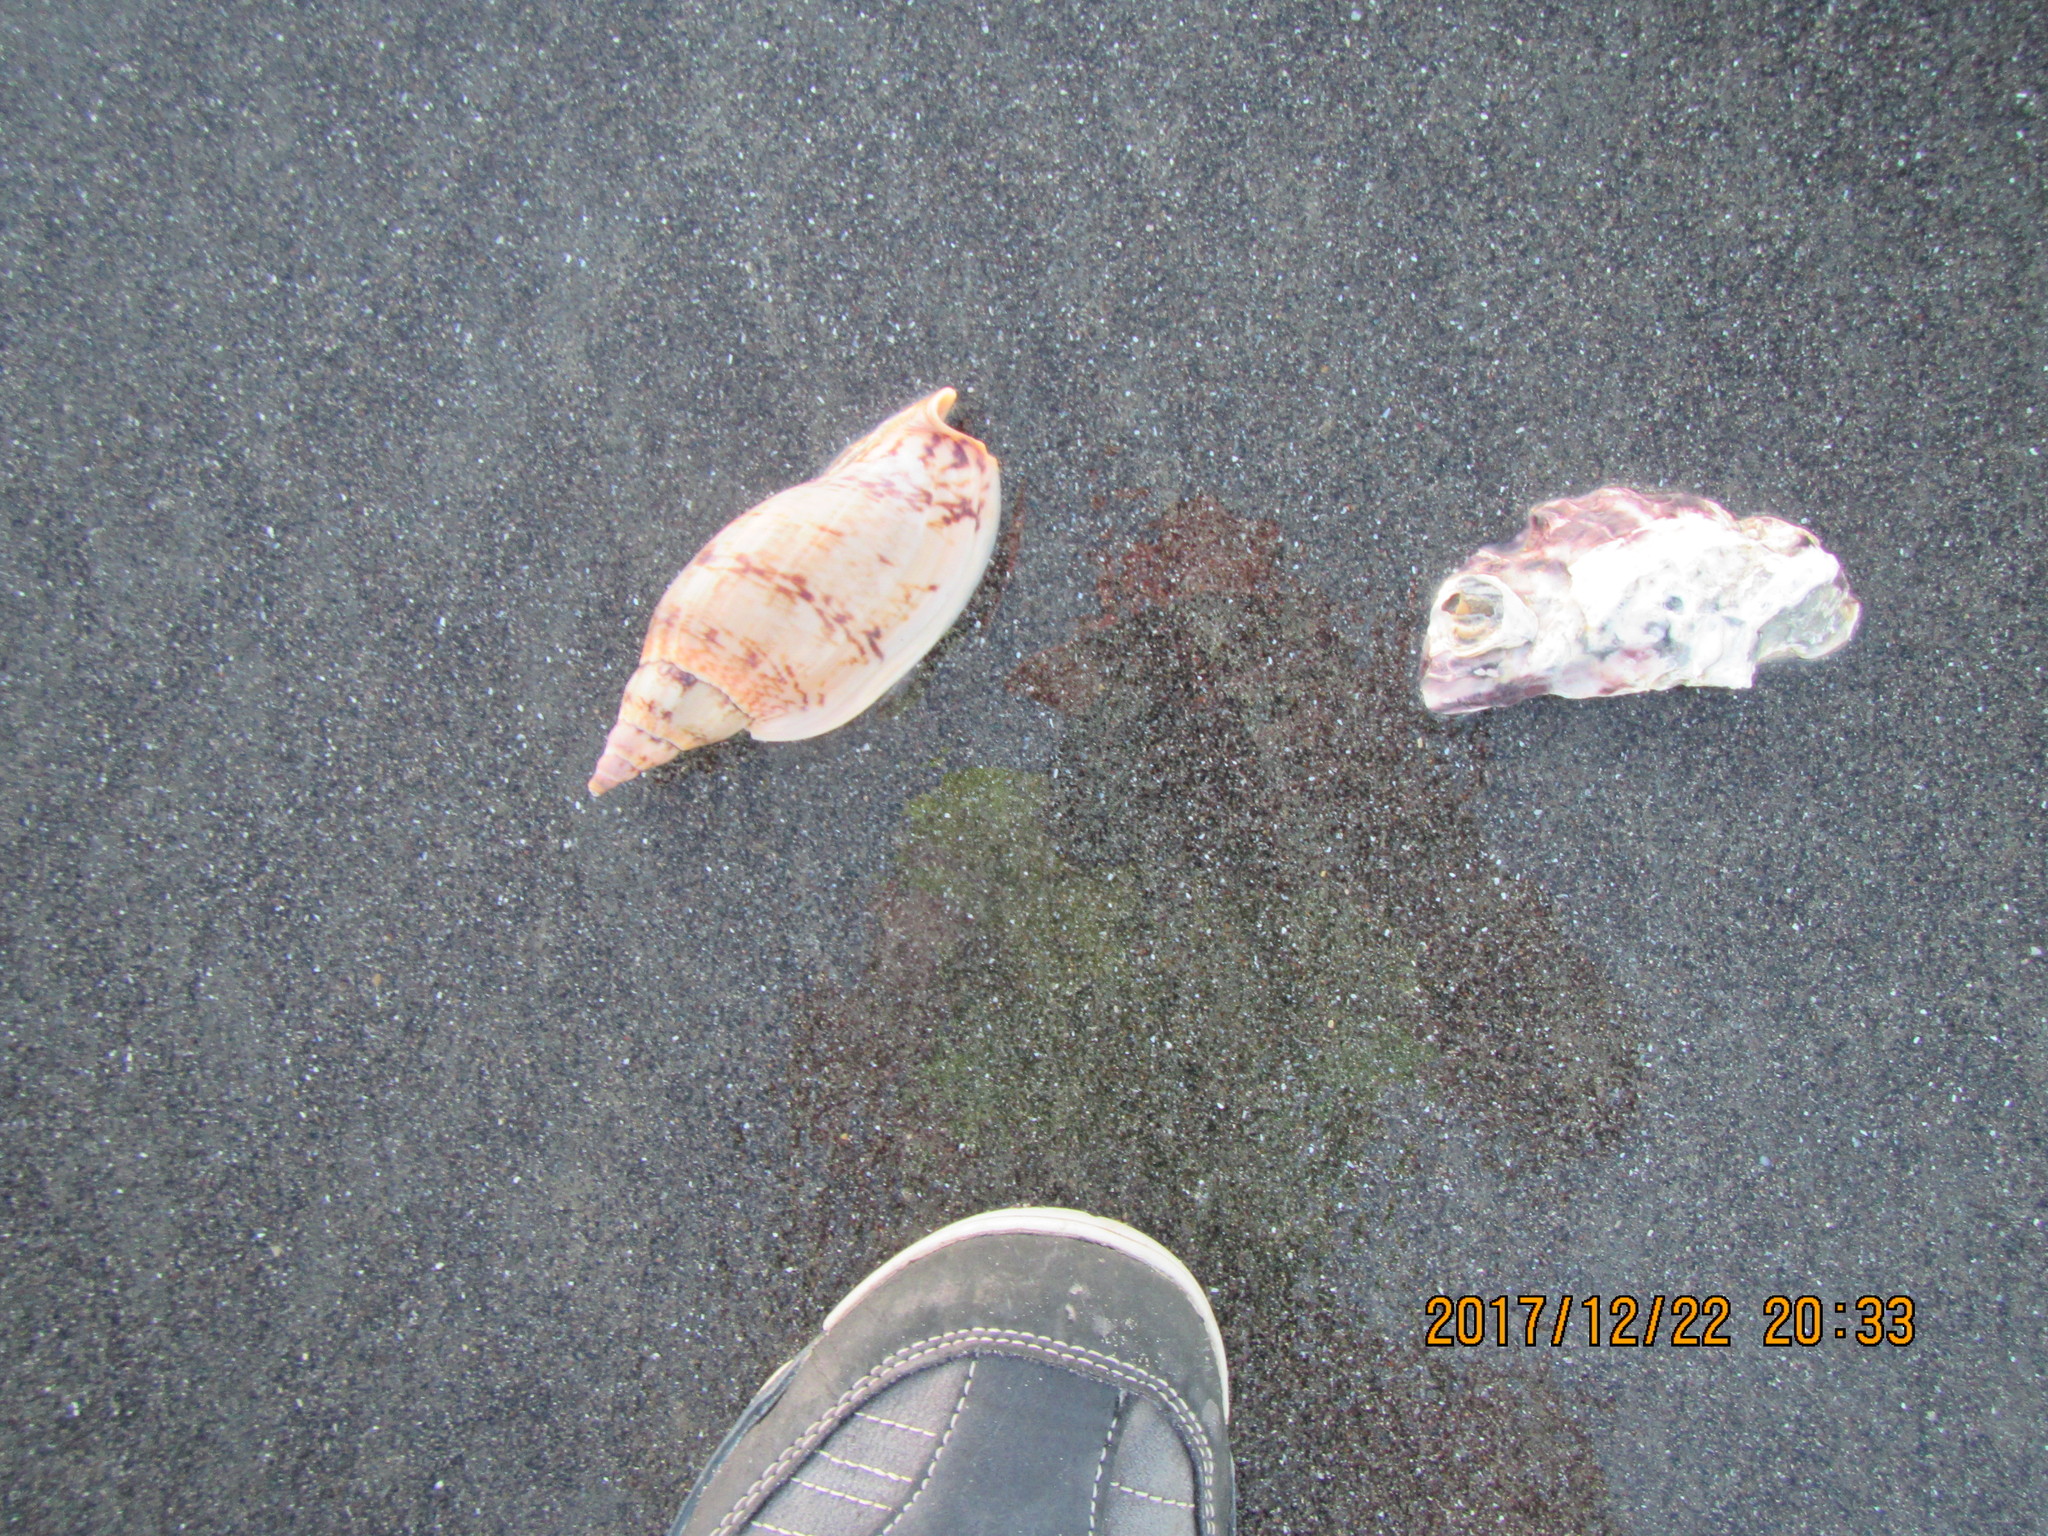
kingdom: Animalia
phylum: Mollusca
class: Bivalvia
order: Ostreida
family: Ostreidae
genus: Magallana
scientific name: Magallana gigas
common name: Pacific oyster
